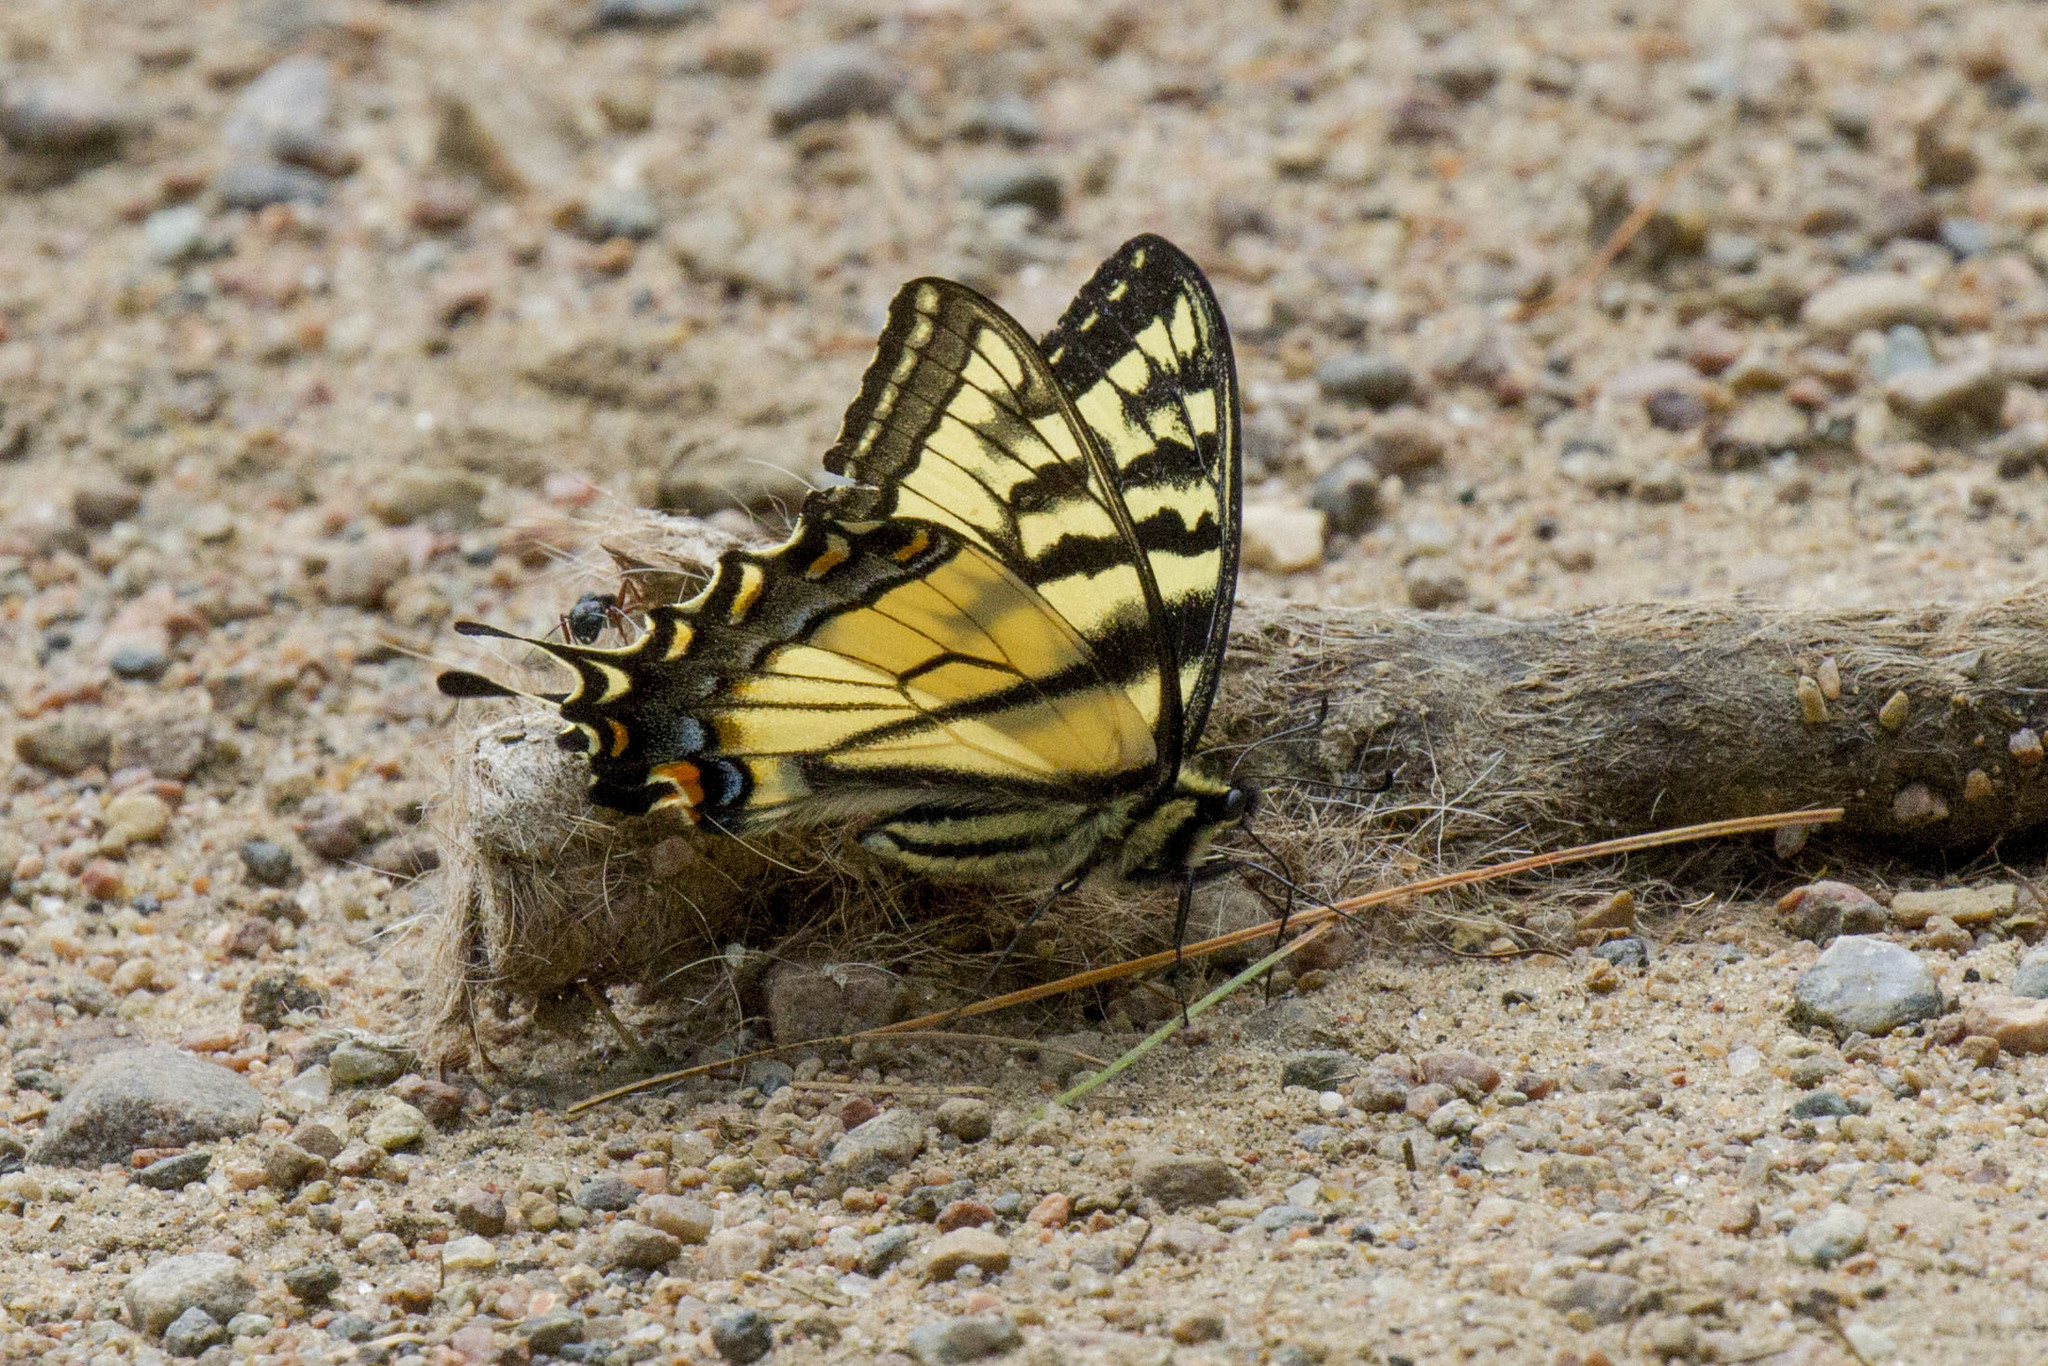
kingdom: Animalia
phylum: Arthropoda
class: Insecta
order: Lepidoptera
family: Papilionidae
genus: Papilio
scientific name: Papilio canadensis
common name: Canadian tiger swallowtail
